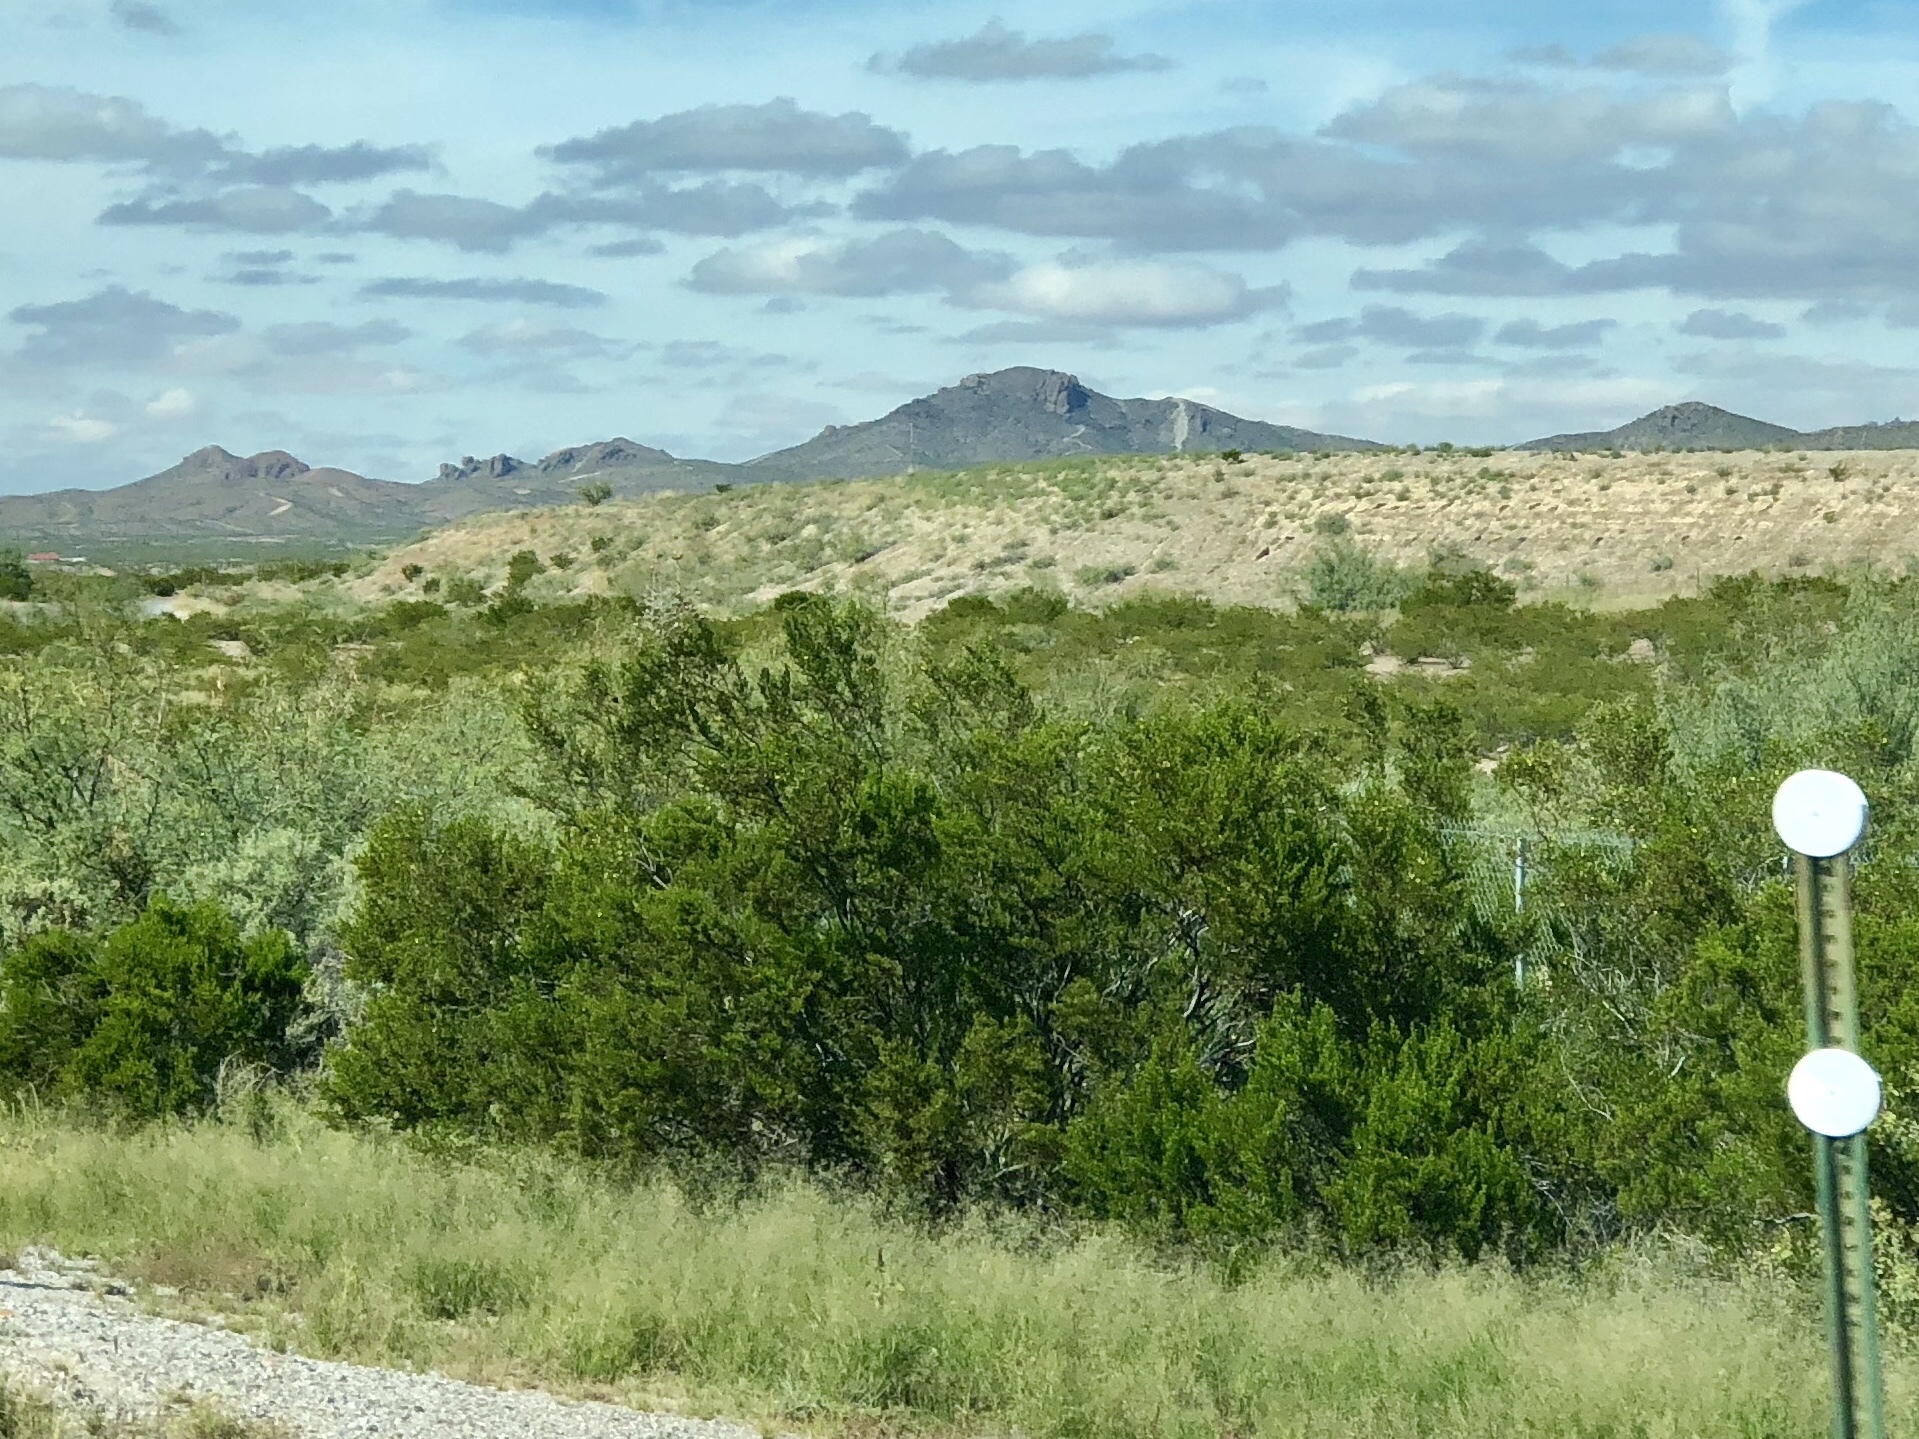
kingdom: Plantae
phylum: Tracheophyta
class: Magnoliopsida
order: Zygophyllales
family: Zygophyllaceae
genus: Larrea
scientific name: Larrea tridentata
